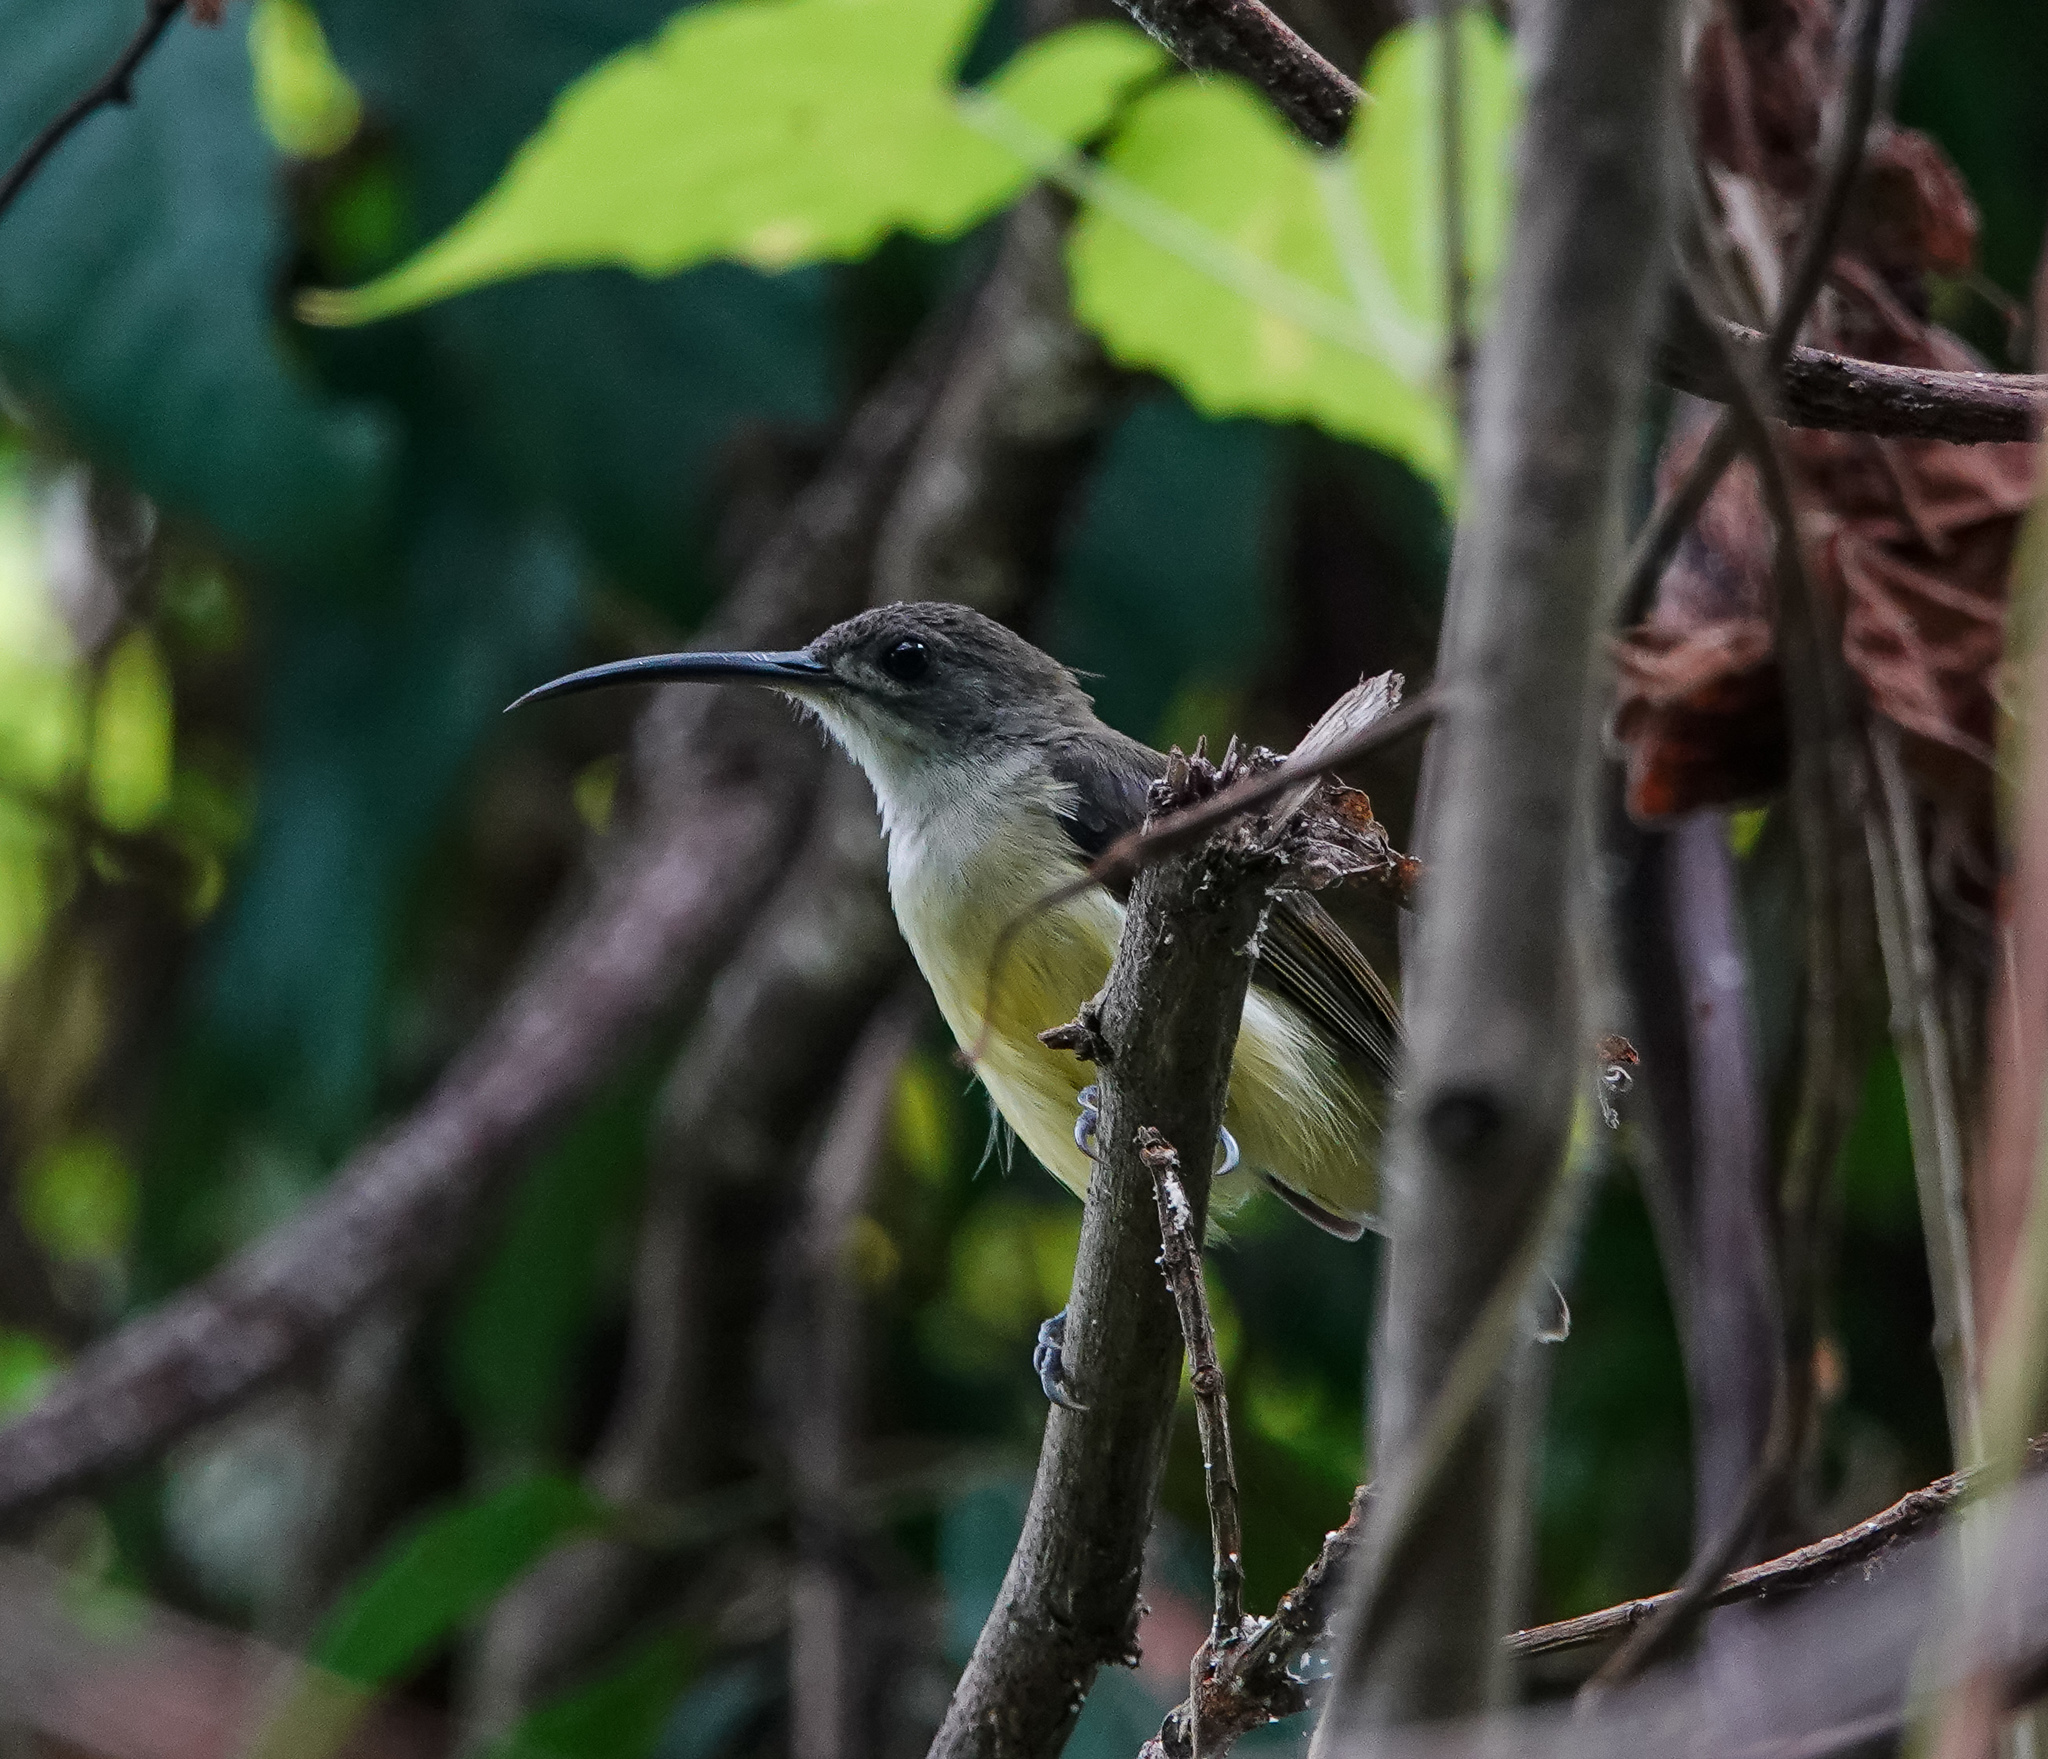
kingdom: Animalia
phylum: Chordata
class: Aves
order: Passeriformes
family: Nectariniidae
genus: Arachnothera
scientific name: Arachnothera longirostra
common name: Little spiderhunter
